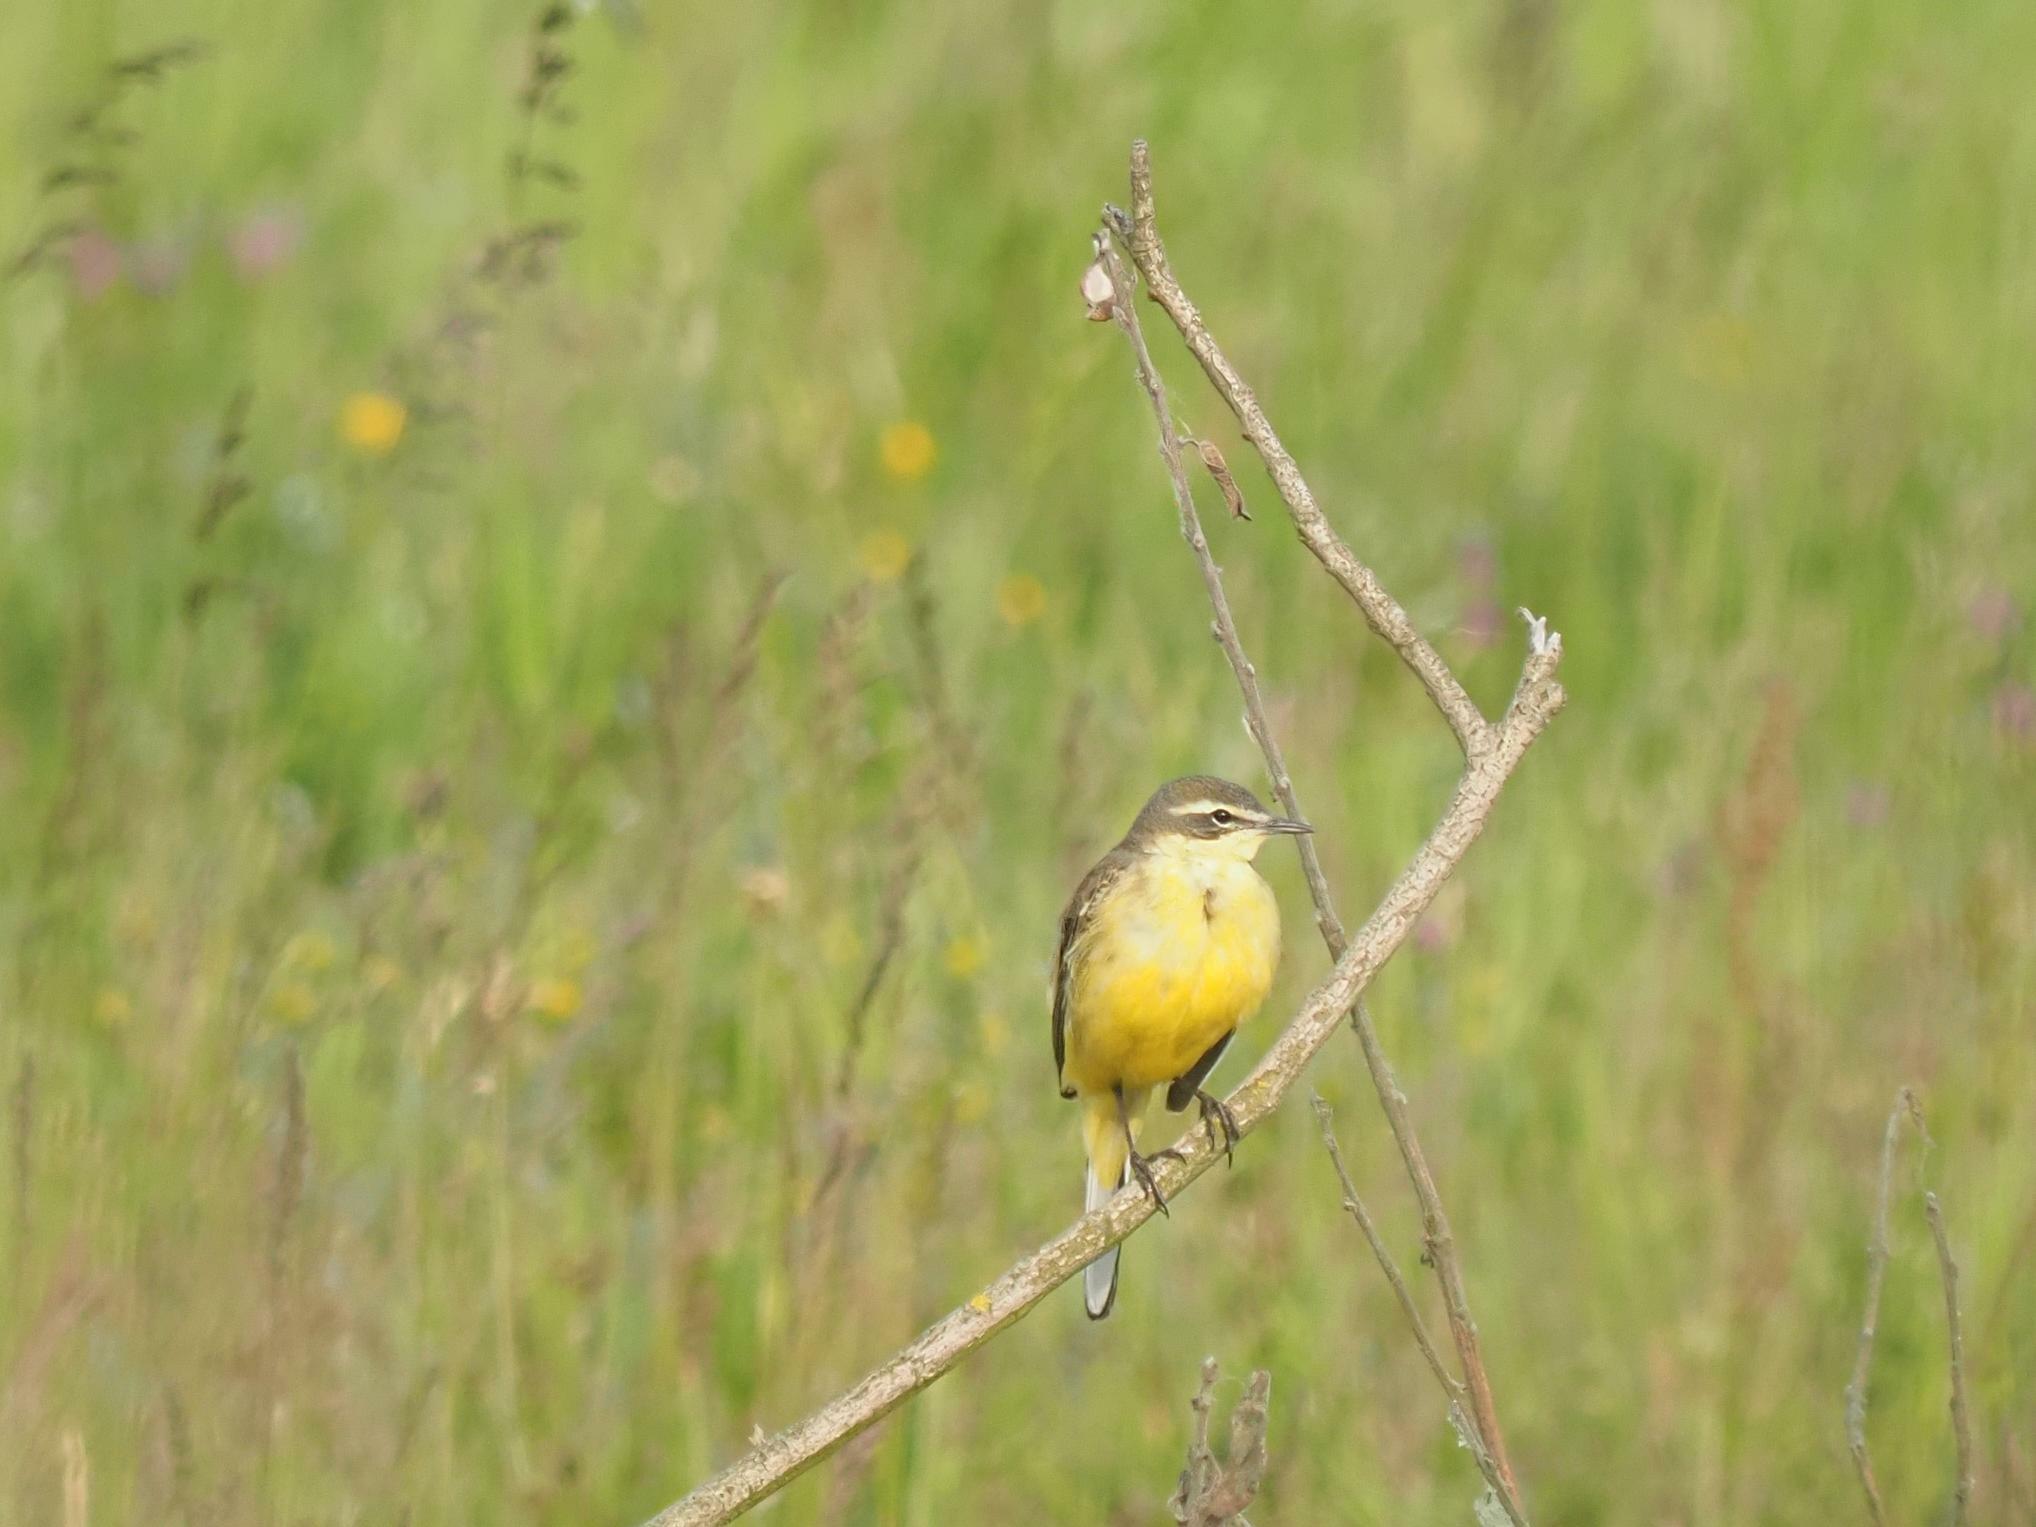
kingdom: Animalia
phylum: Chordata
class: Aves
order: Passeriformes
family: Motacillidae
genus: Motacilla
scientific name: Motacilla flava
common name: Western yellow wagtail
